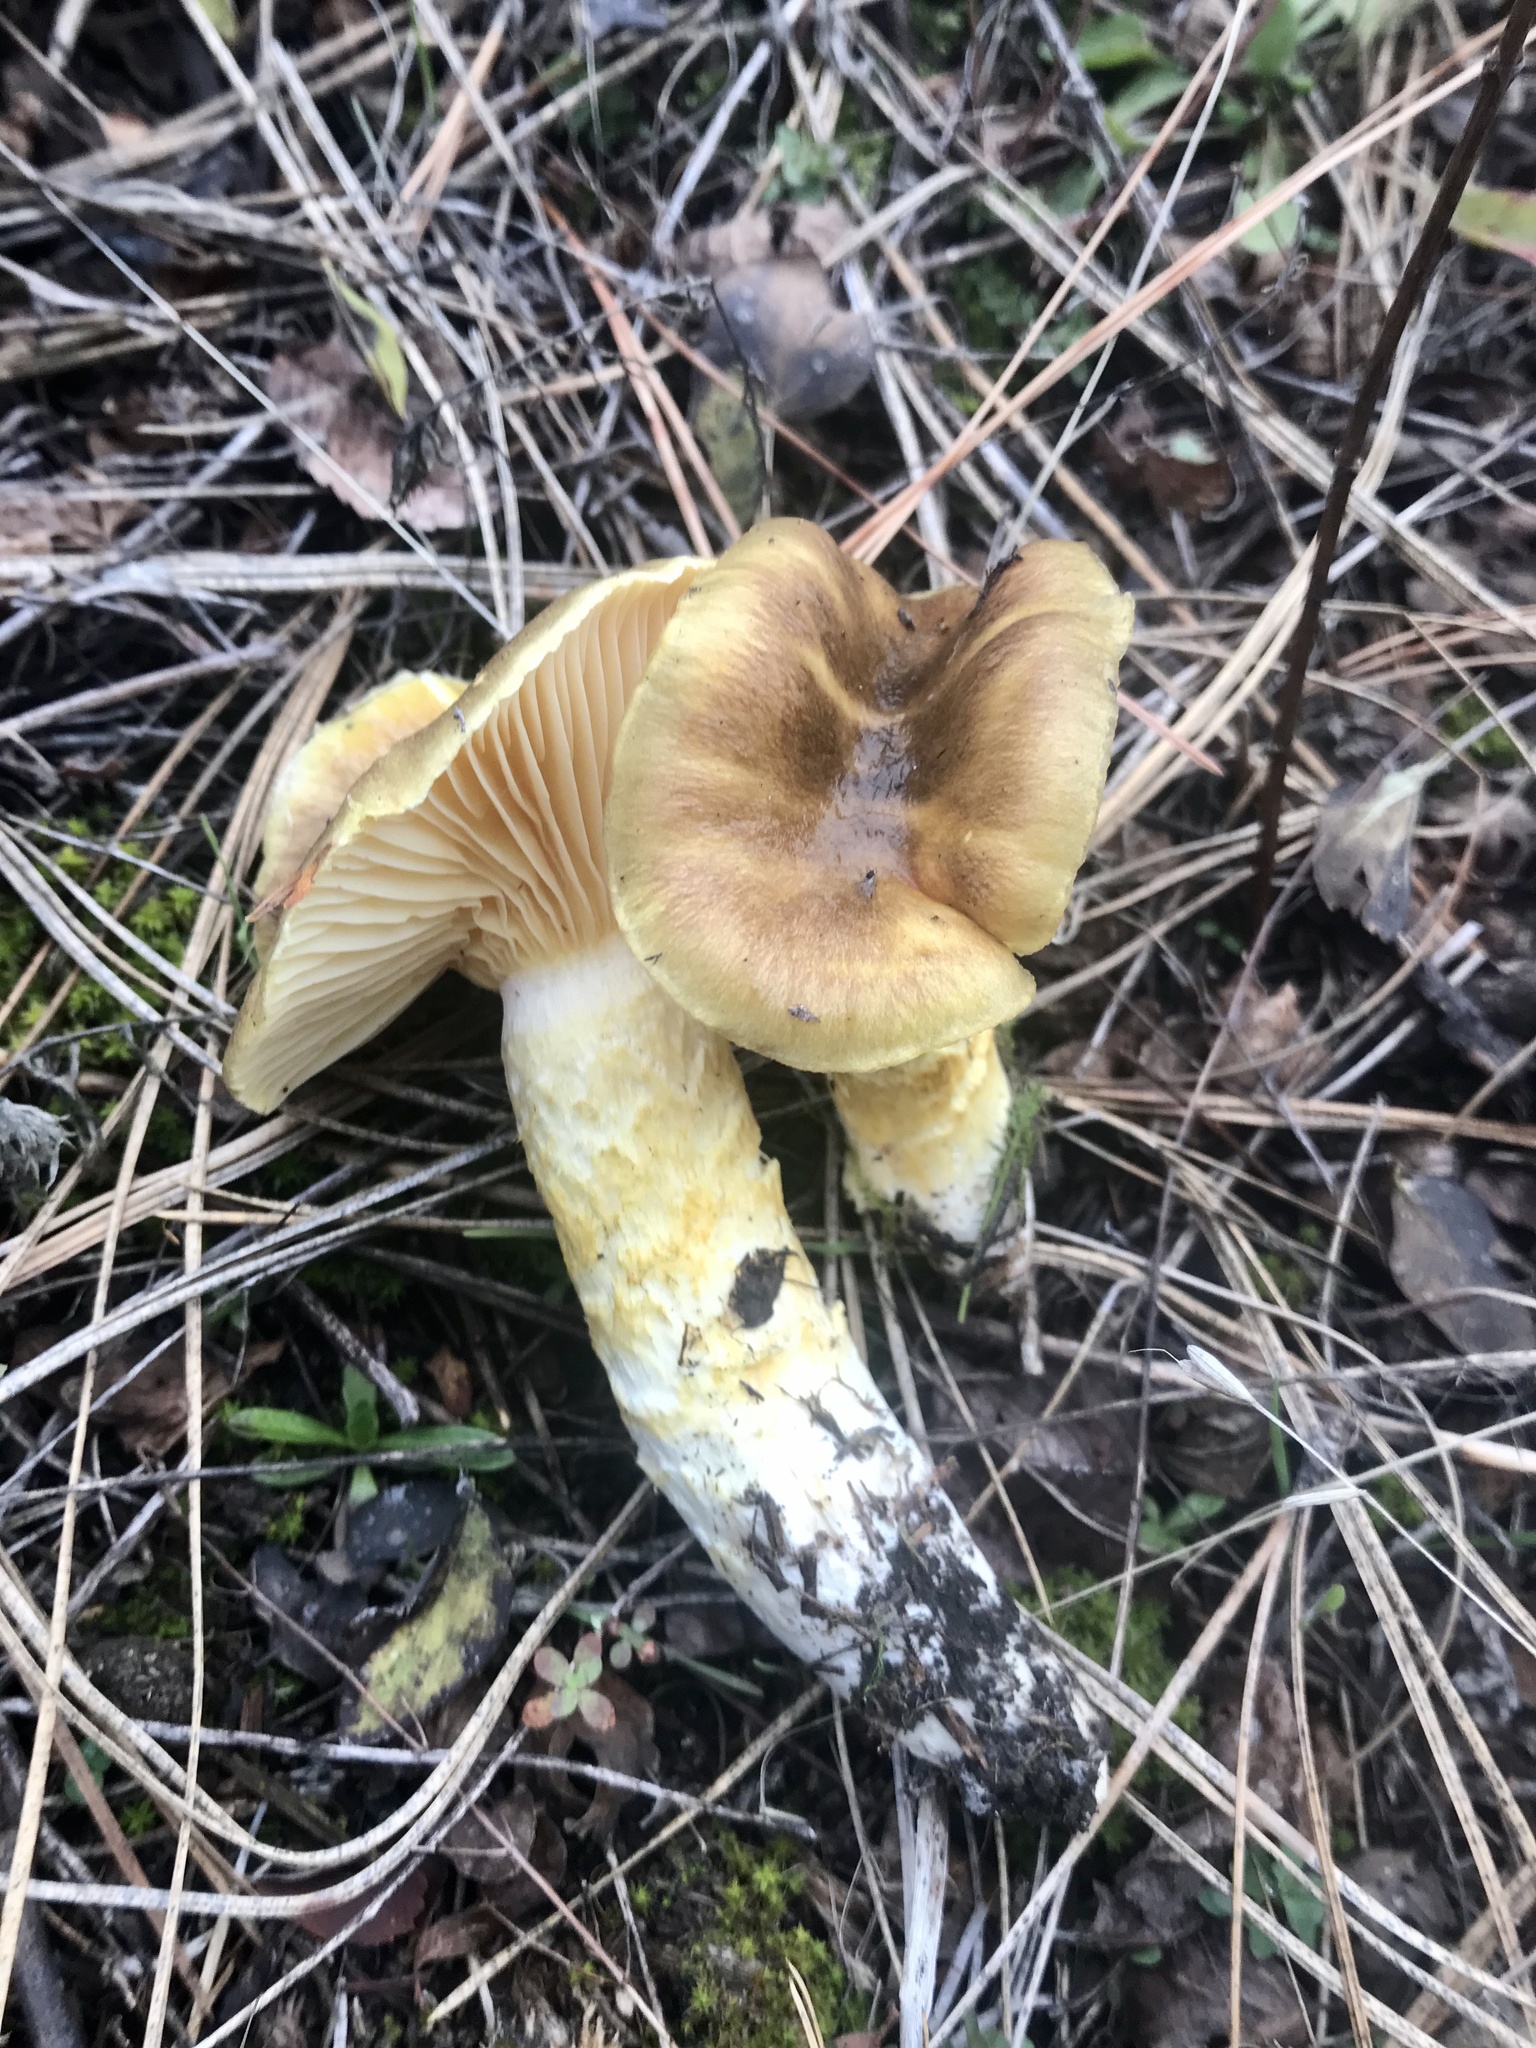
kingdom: Fungi
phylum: Basidiomycota
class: Agaricomycetes
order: Agaricales
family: Hygrophoraceae
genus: Hygrophorus
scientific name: Hygrophorus siccipes
